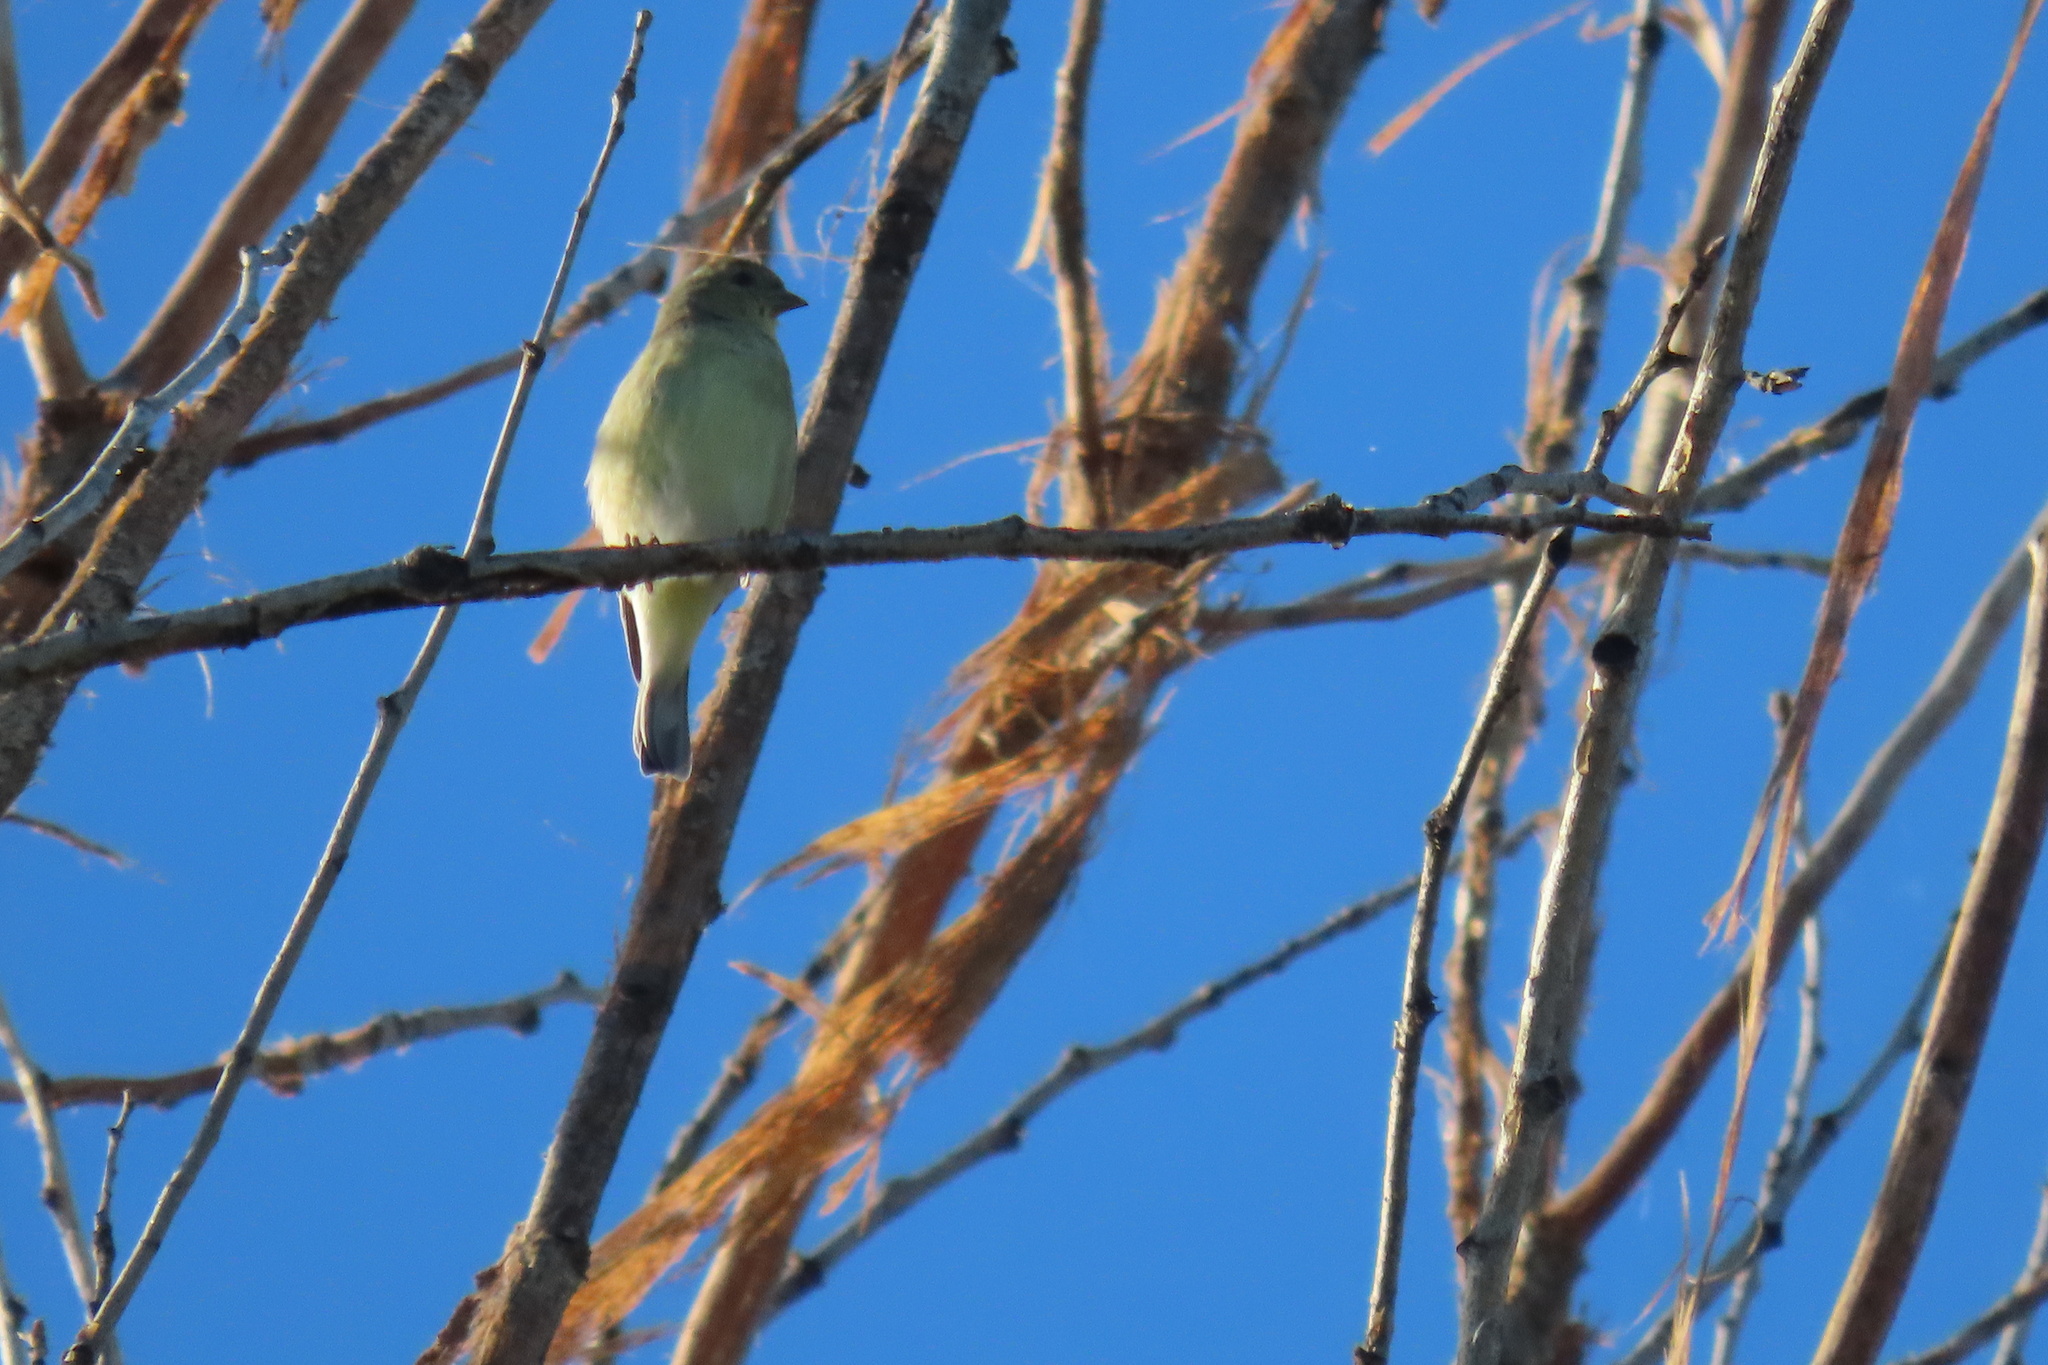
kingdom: Animalia
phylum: Chordata
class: Aves
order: Passeriformes
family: Fringillidae
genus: Spinus
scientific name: Spinus psaltria
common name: Lesser goldfinch
